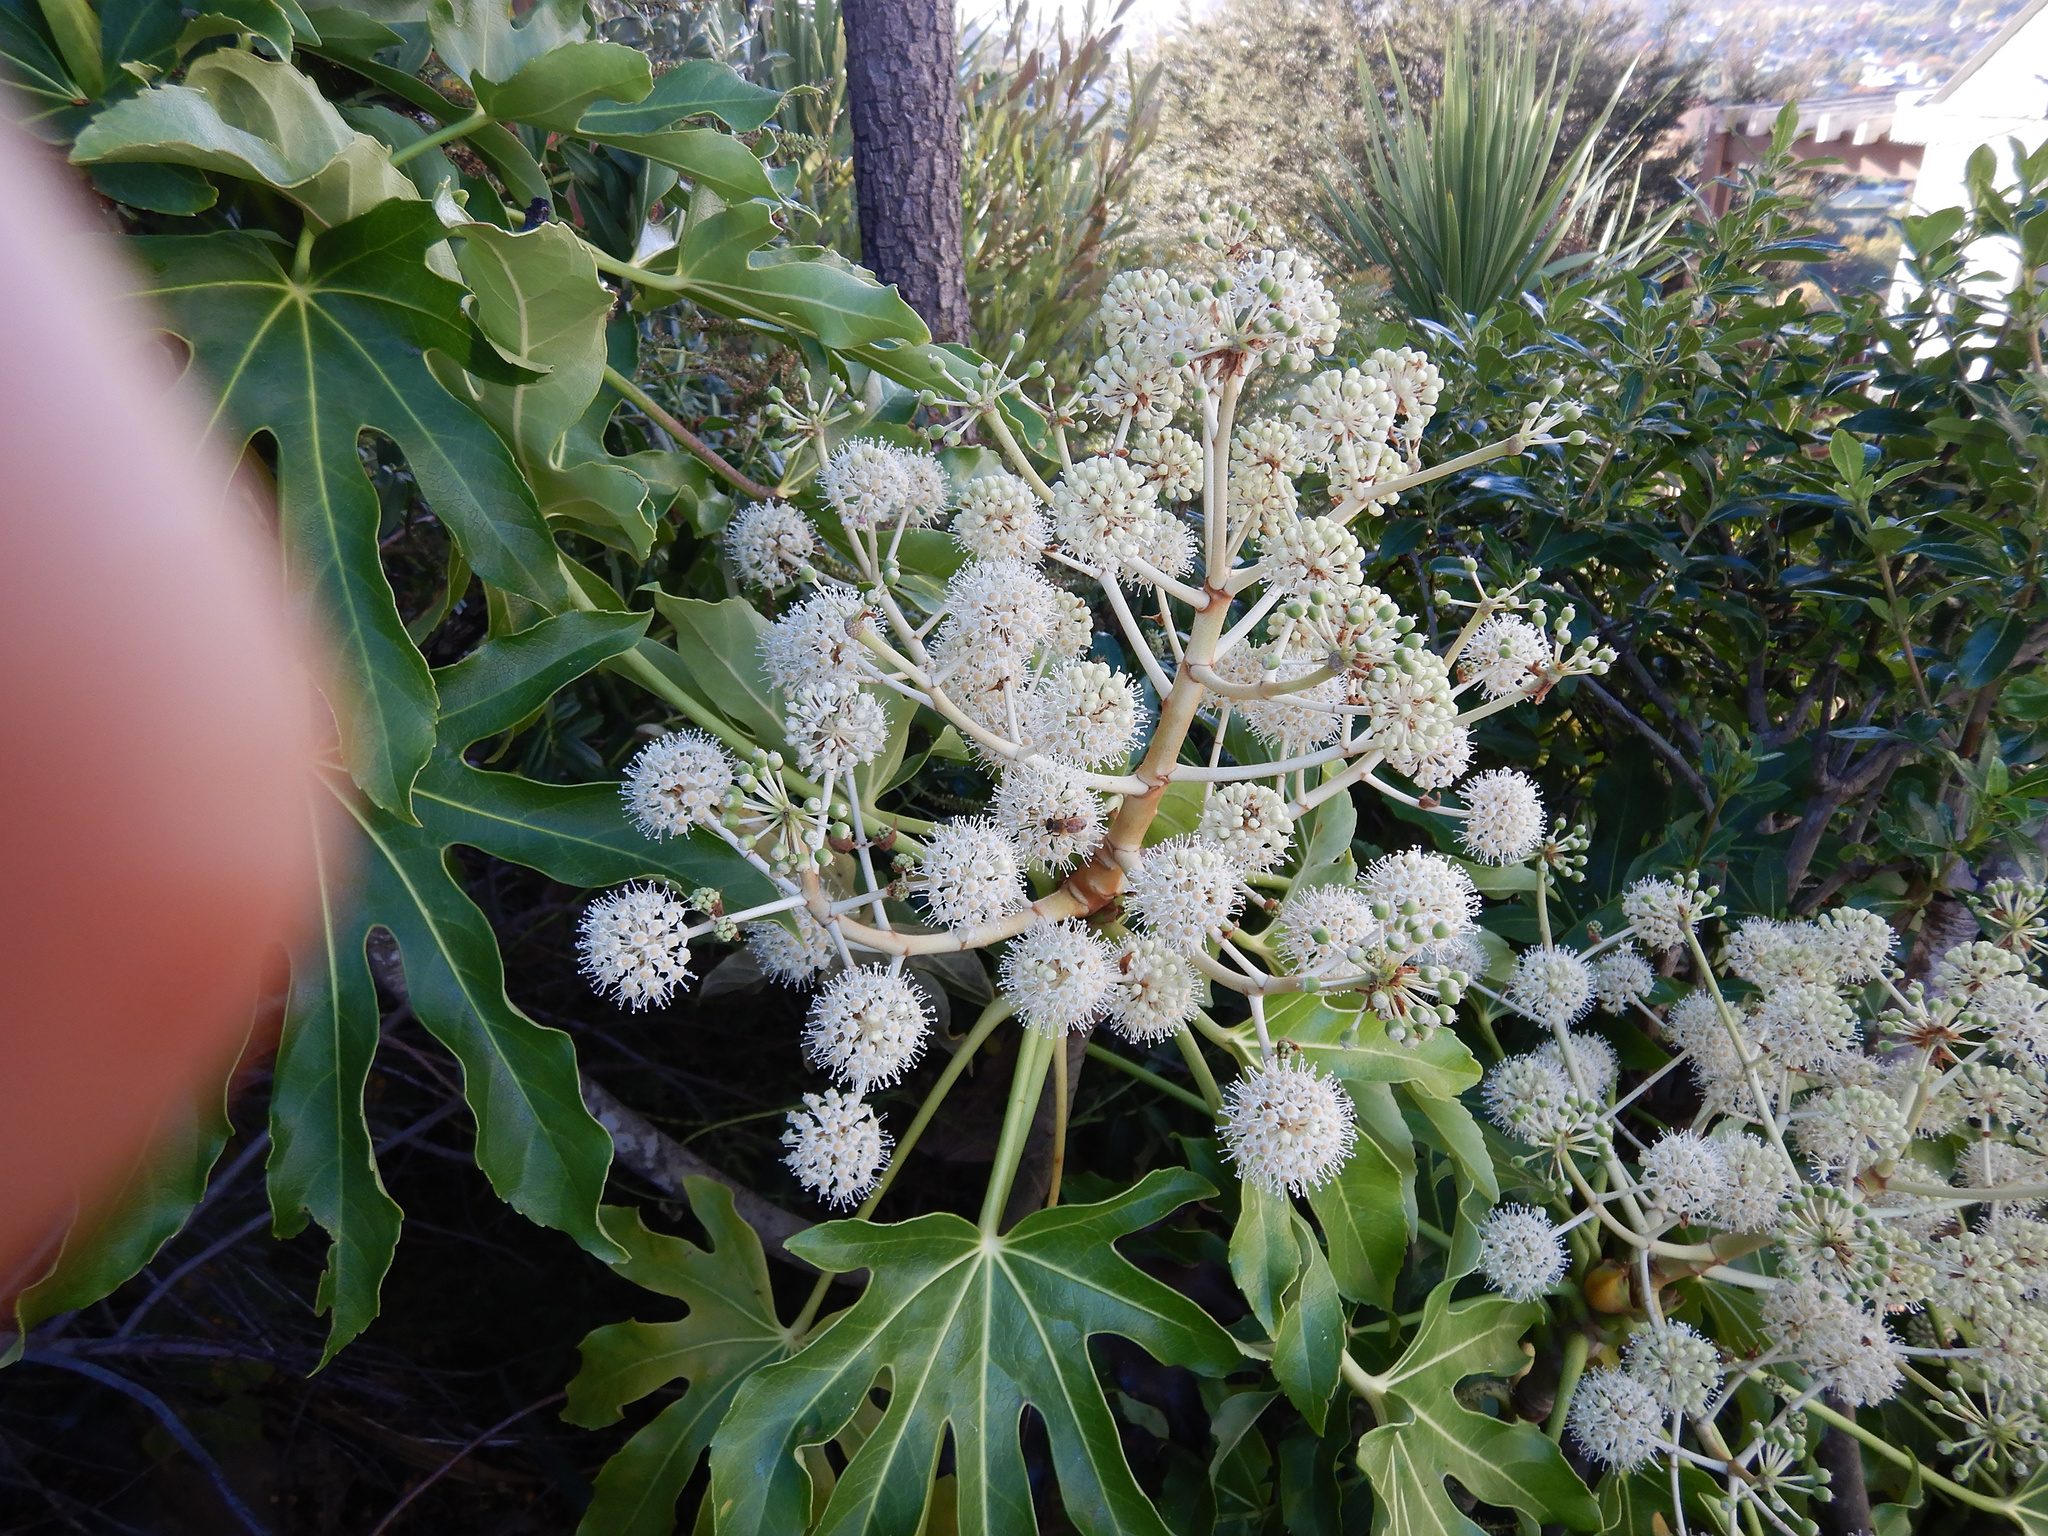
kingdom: Plantae
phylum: Tracheophyta
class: Magnoliopsida
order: Apiales
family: Araliaceae
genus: Fatsia
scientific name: Fatsia japonica
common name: Fatsia
